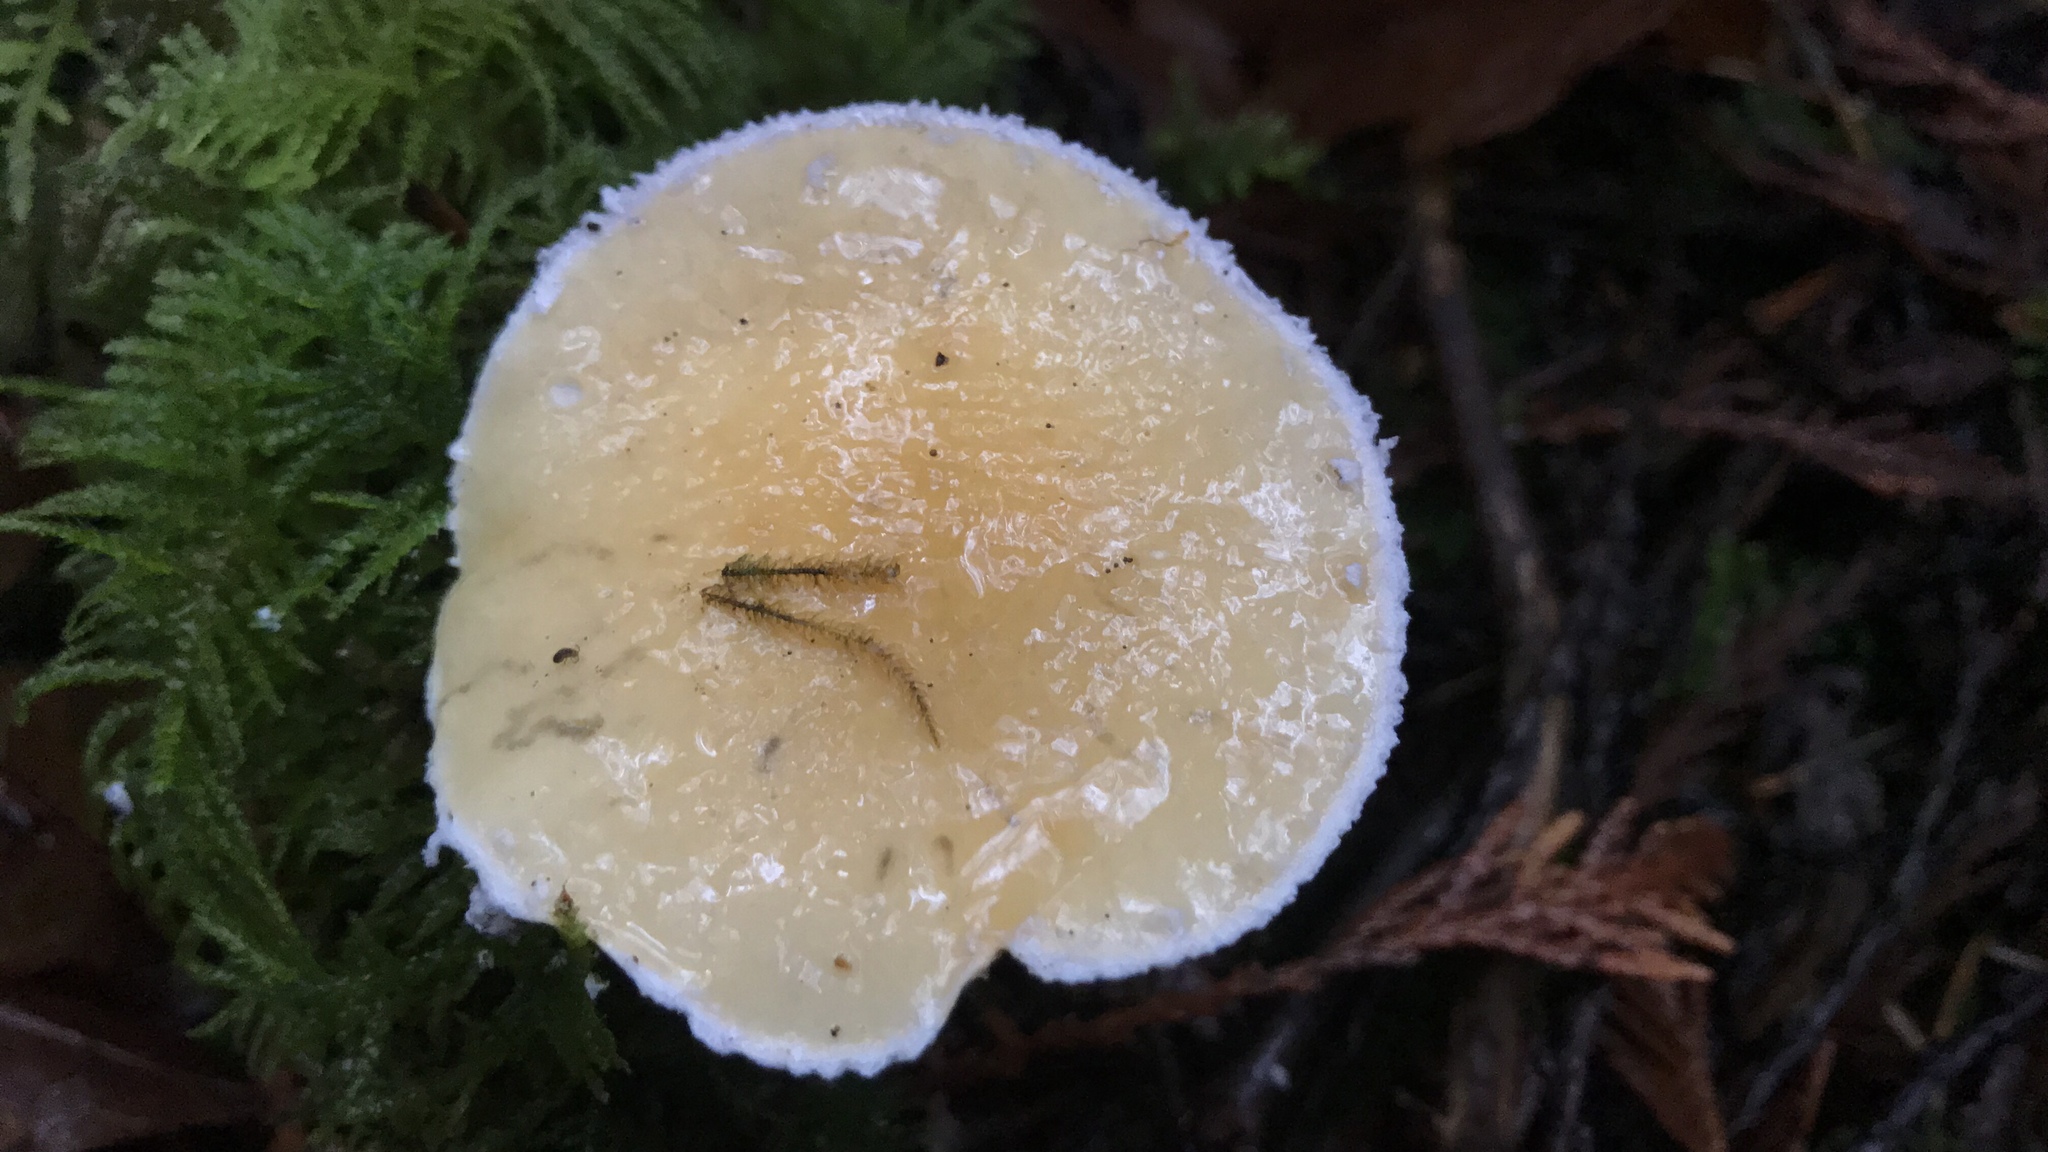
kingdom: Fungi
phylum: Basidiomycota
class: Agaricomycetes
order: Agaricales
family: Strophariaceae
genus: Stropharia
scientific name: Stropharia ambigua
